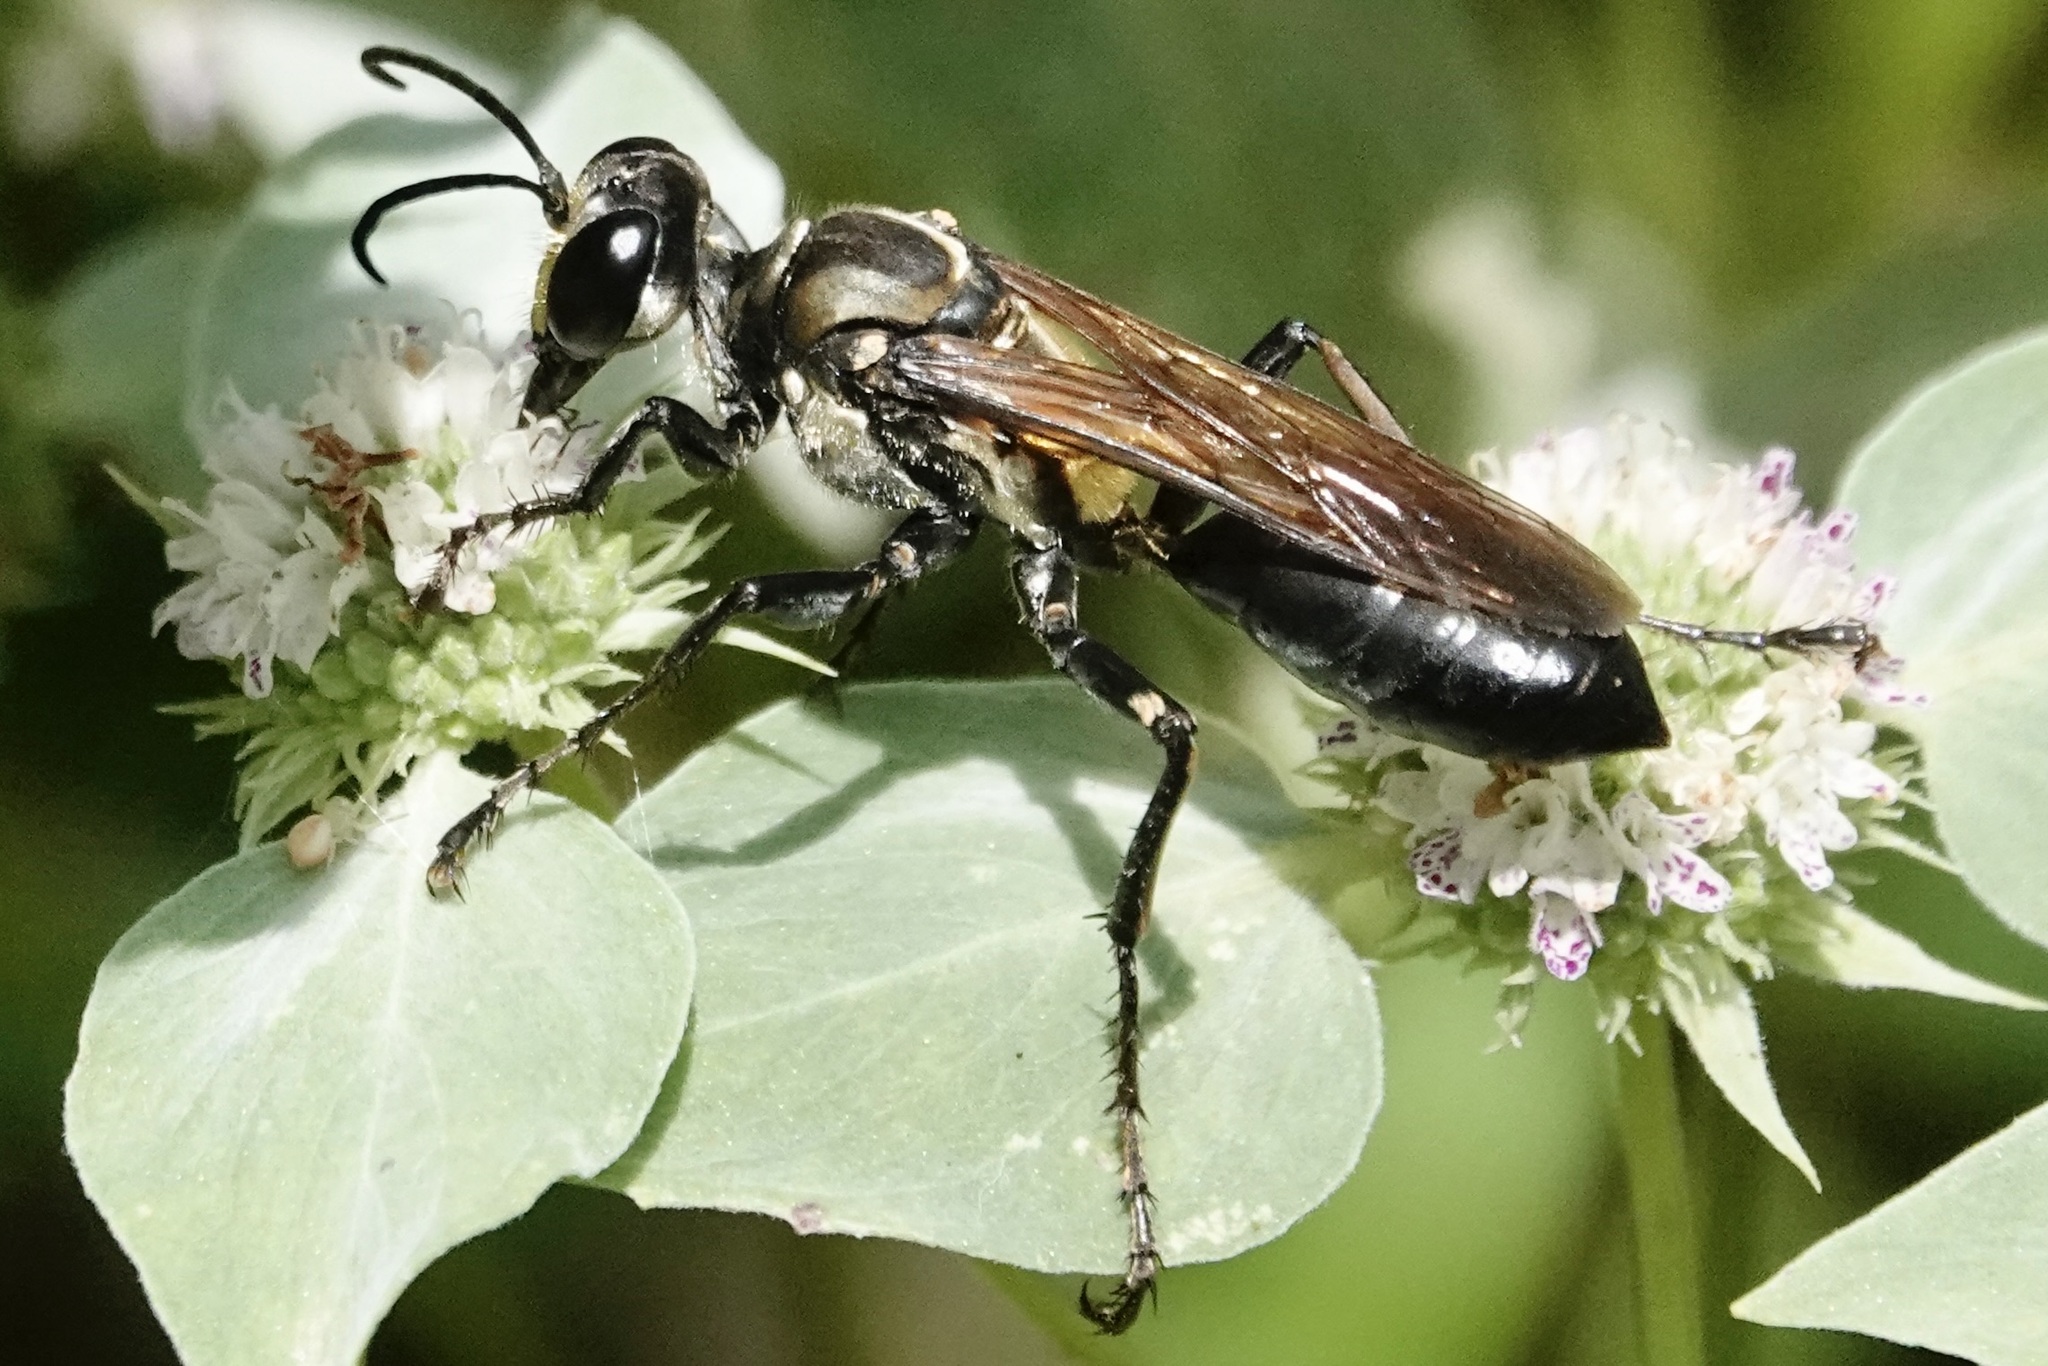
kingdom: Animalia
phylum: Arthropoda
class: Insecta
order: Hymenoptera
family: Sphecidae
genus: Sphex
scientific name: Sphex habenus
